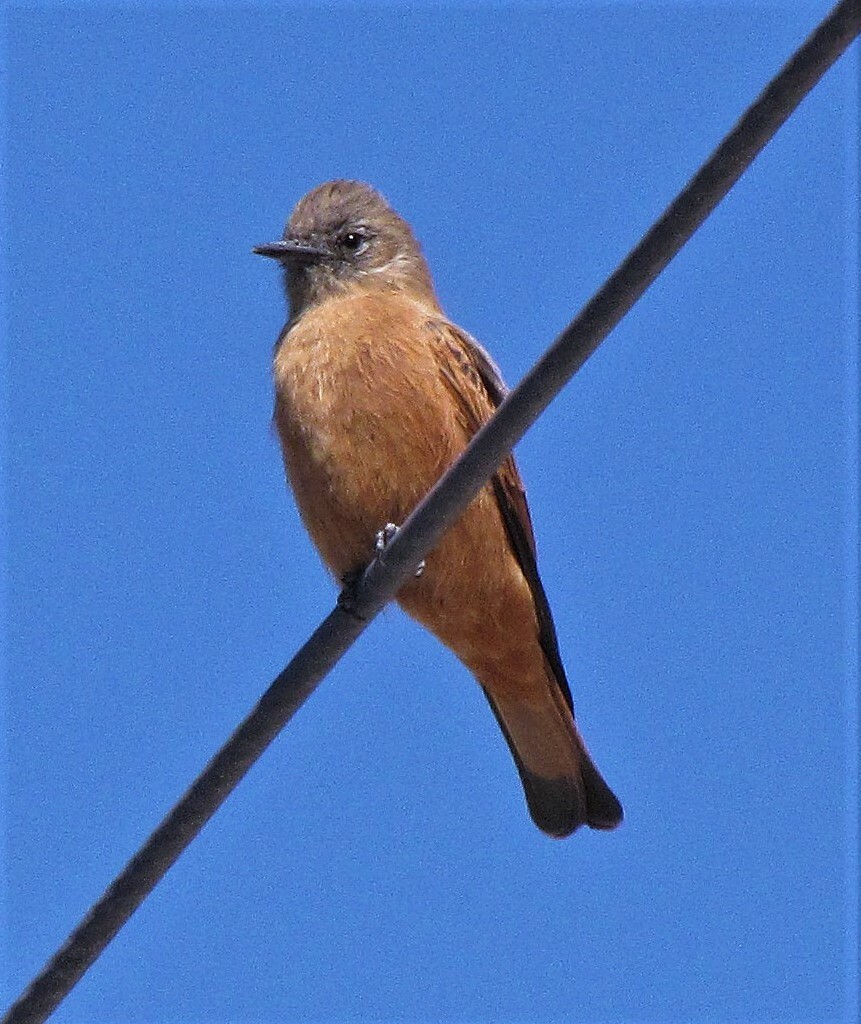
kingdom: Animalia
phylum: Chordata
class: Aves
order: Passeriformes
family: Tyrannidae
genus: Hirundinea
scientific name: Hirundinea ferruginea
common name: Cliff flycatcher
